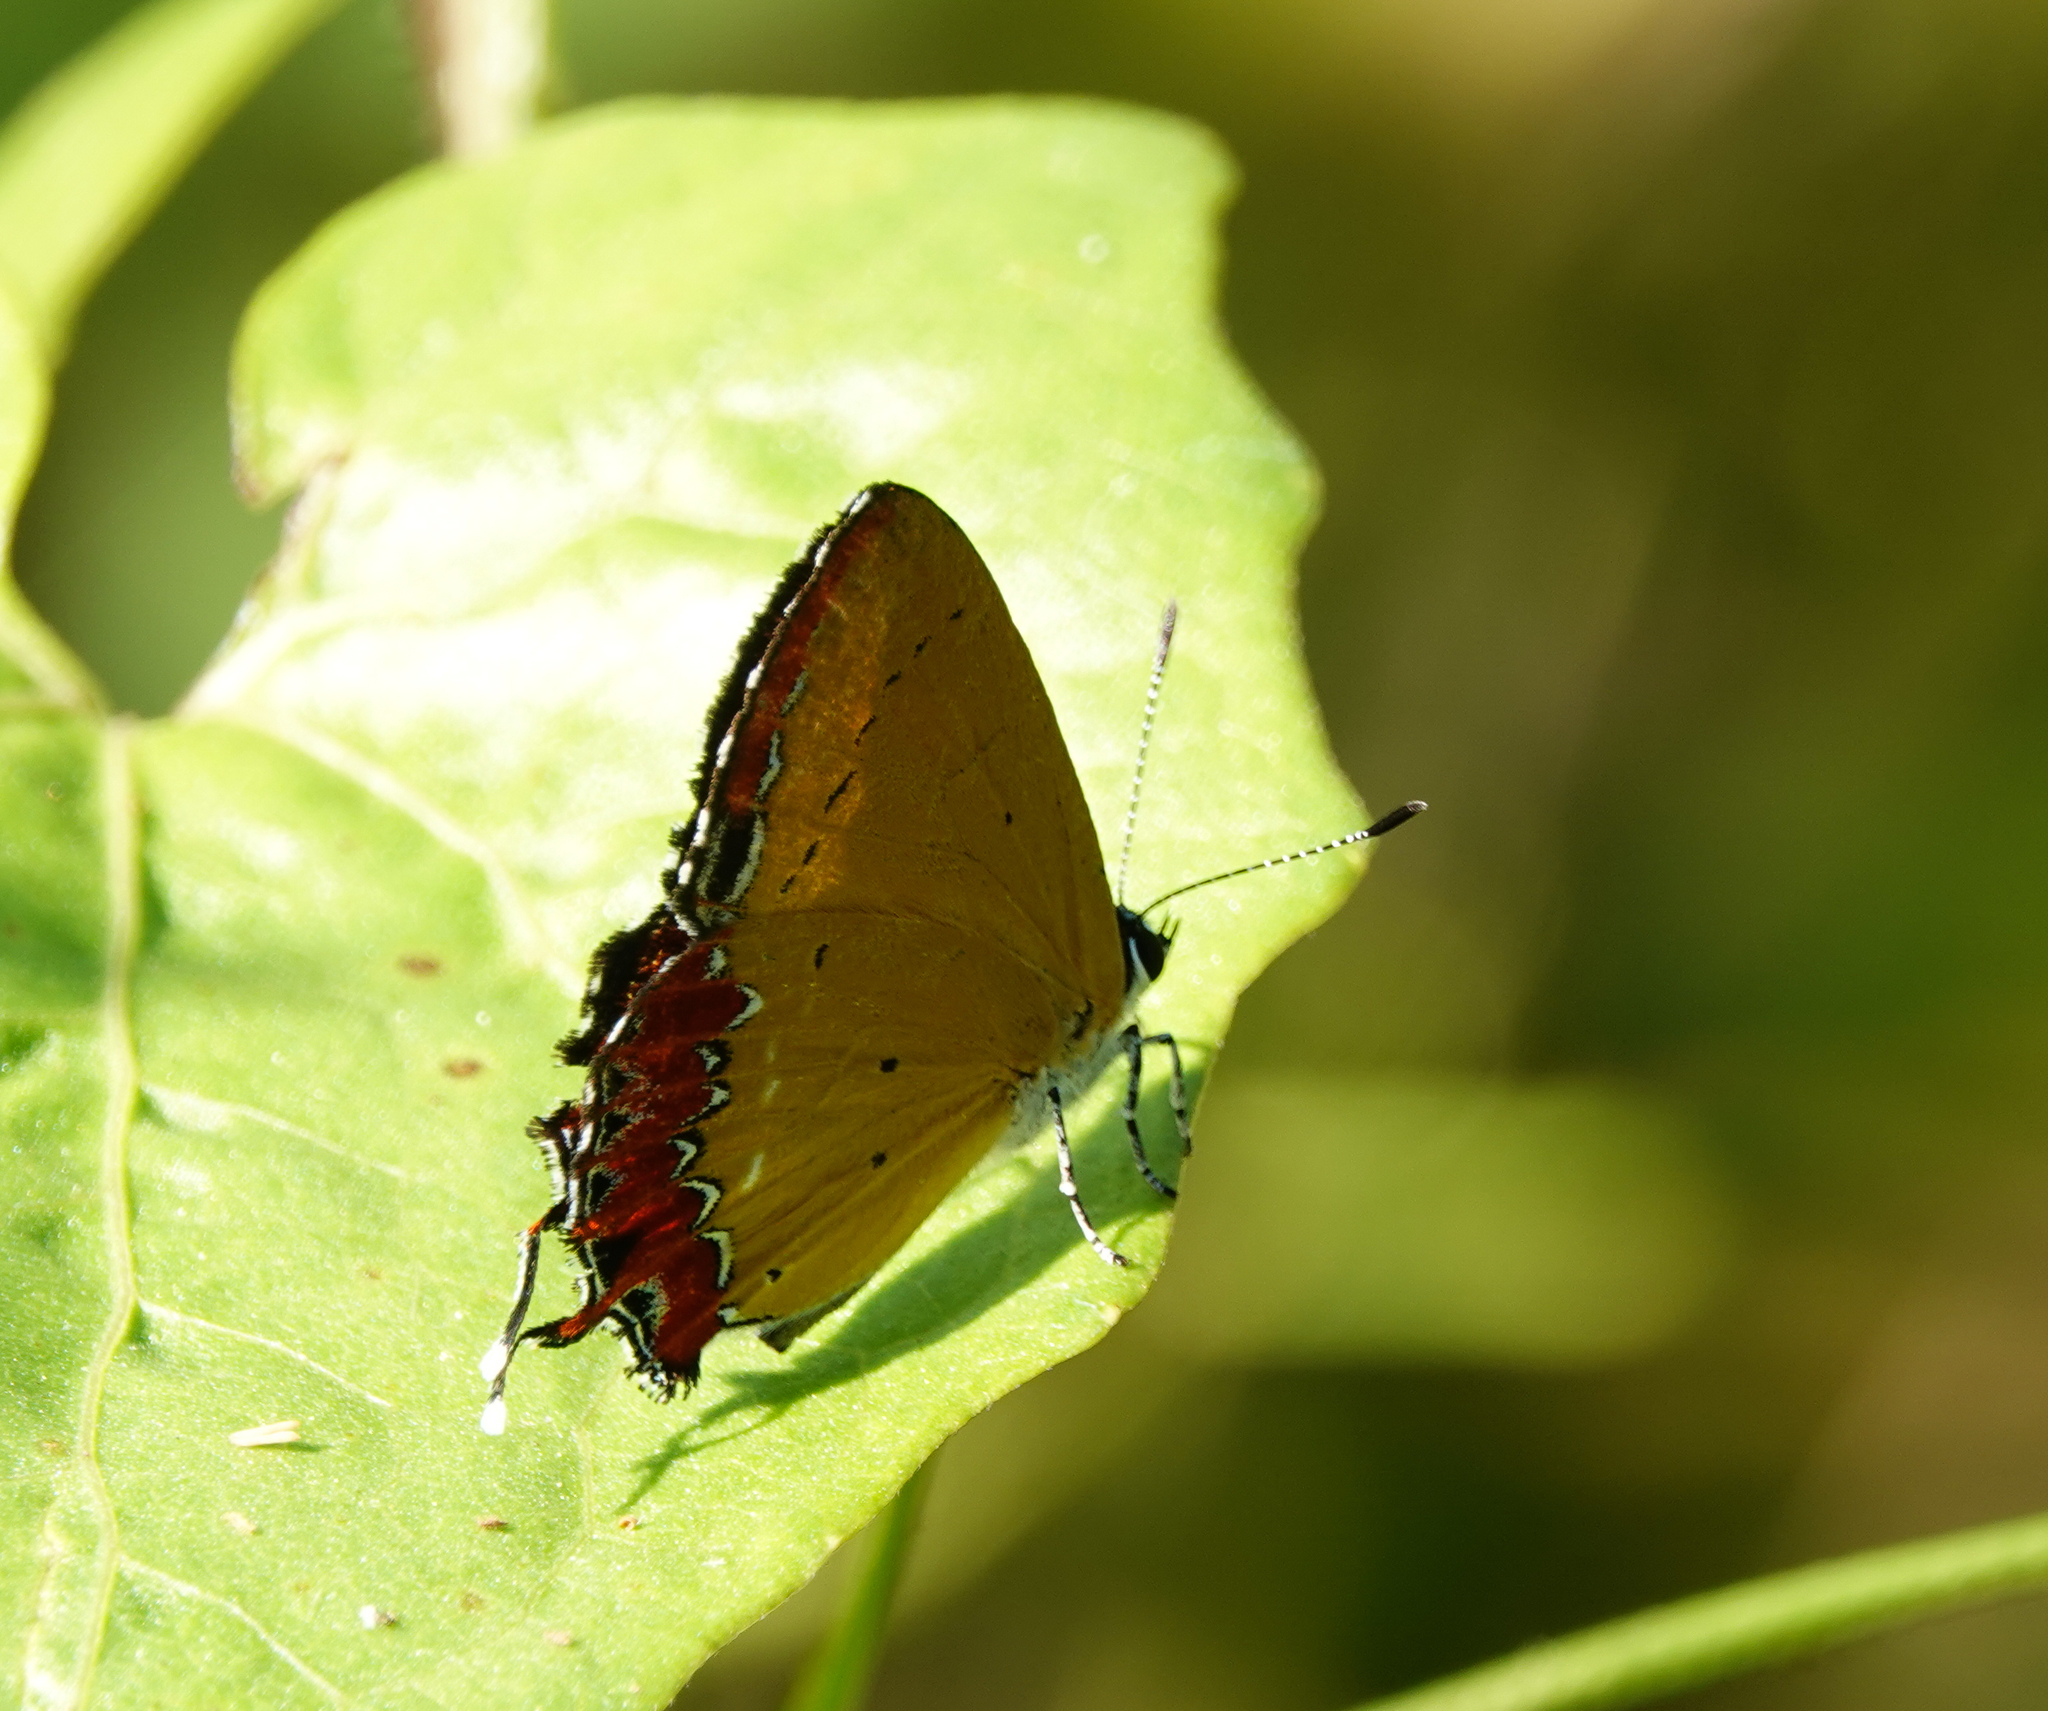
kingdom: Animalia
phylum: Arthropoda
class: Insecta
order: Lepidoptera
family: Lycaenidae
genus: Heliophorus
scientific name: Heliophorus epicles
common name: Purple sapphire
